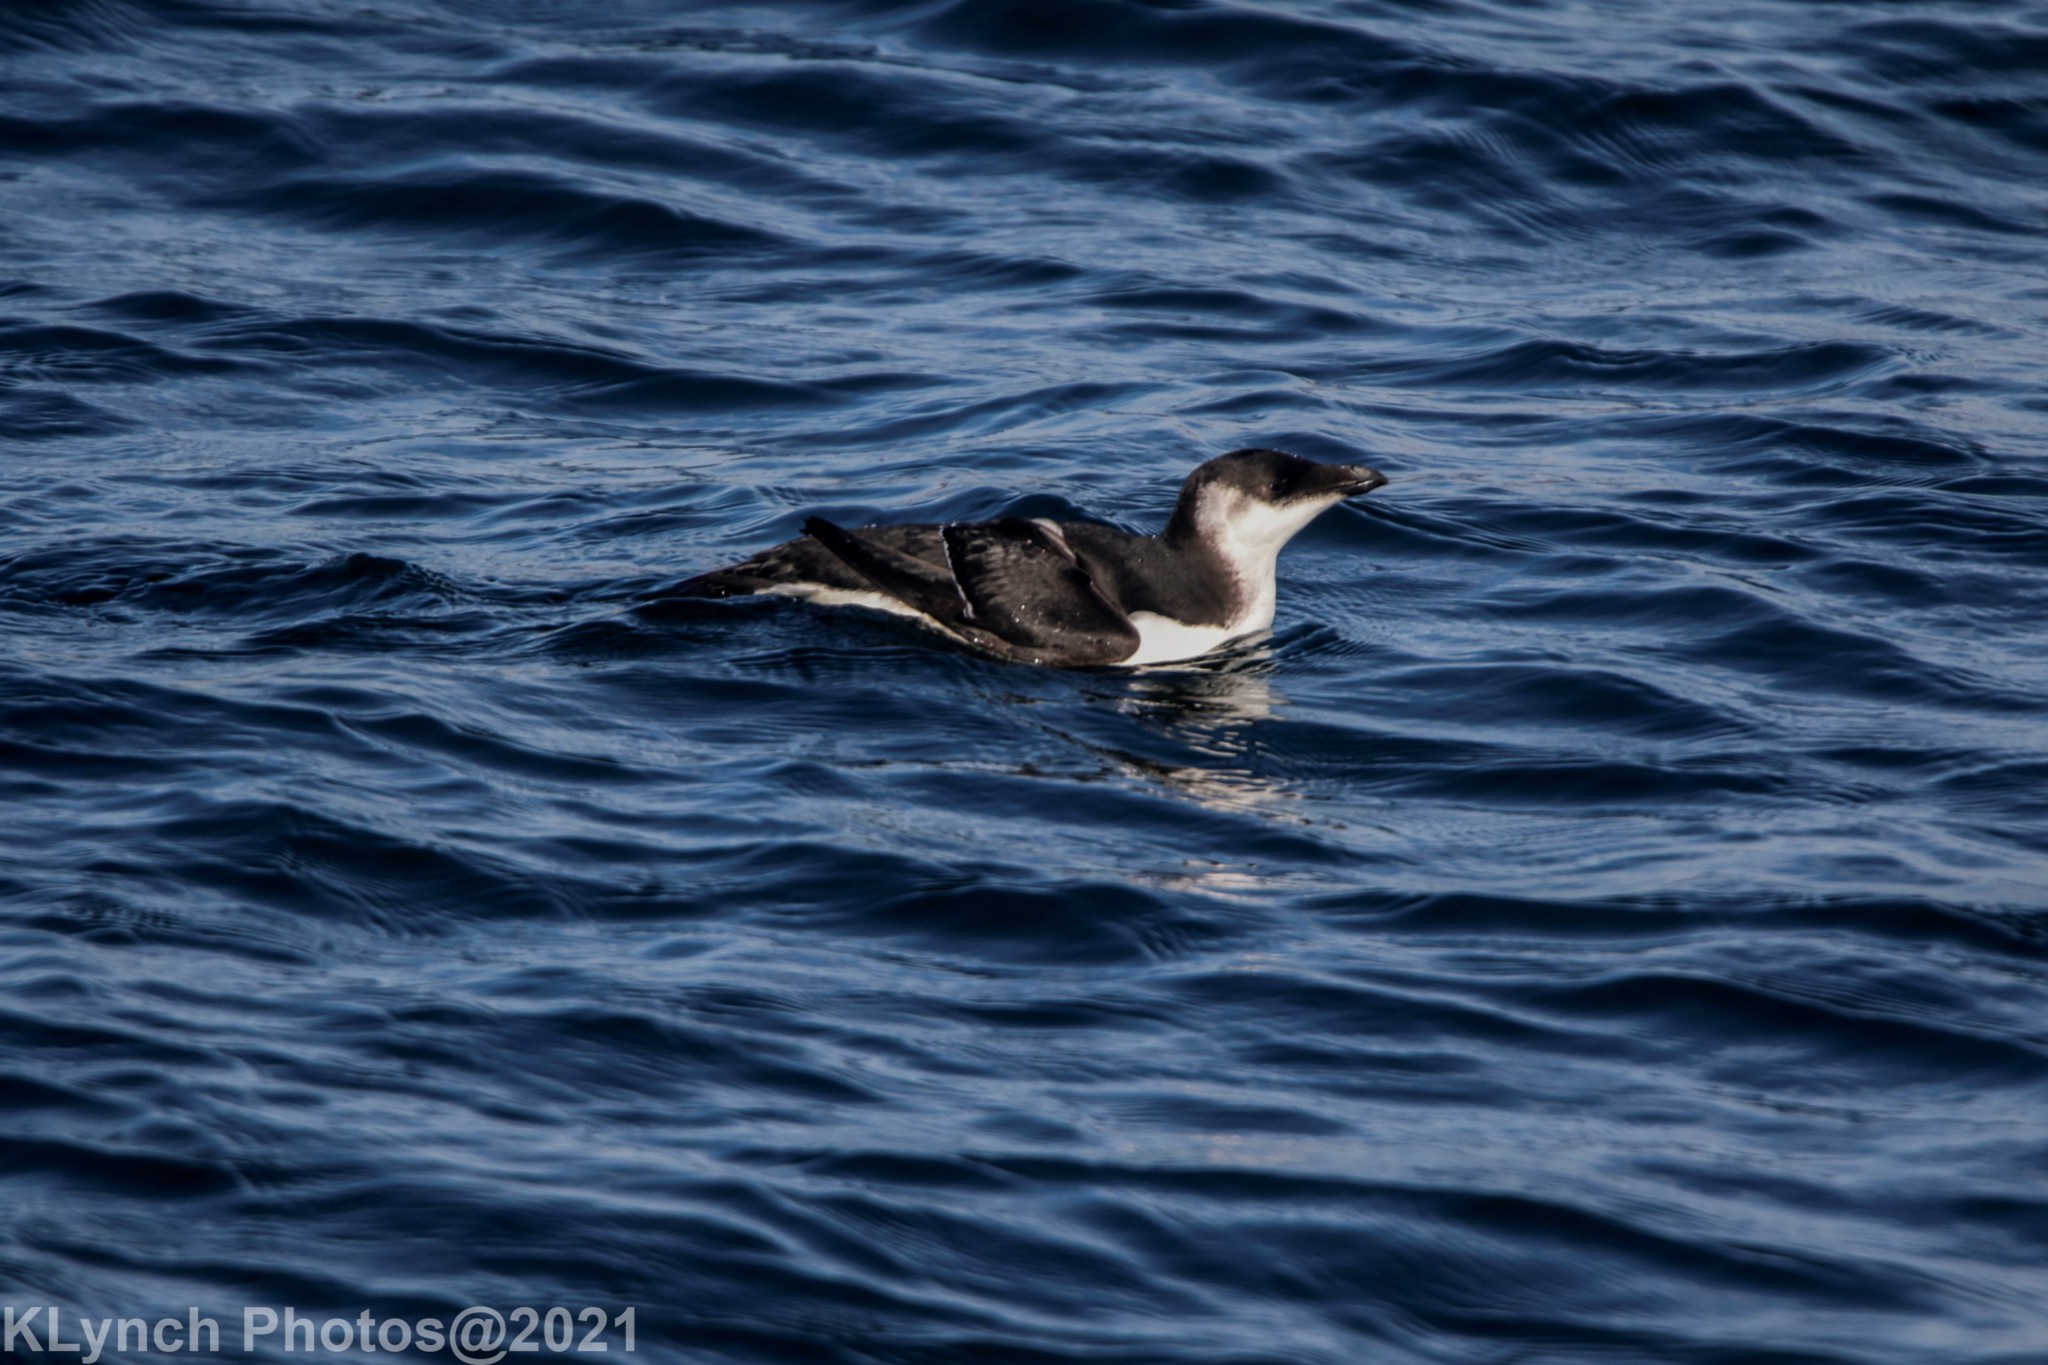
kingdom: Animalia
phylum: Chordata
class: Aves
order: Charadriiformes
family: Alcidae
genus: Alle
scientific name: Alle alle
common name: Little auk
